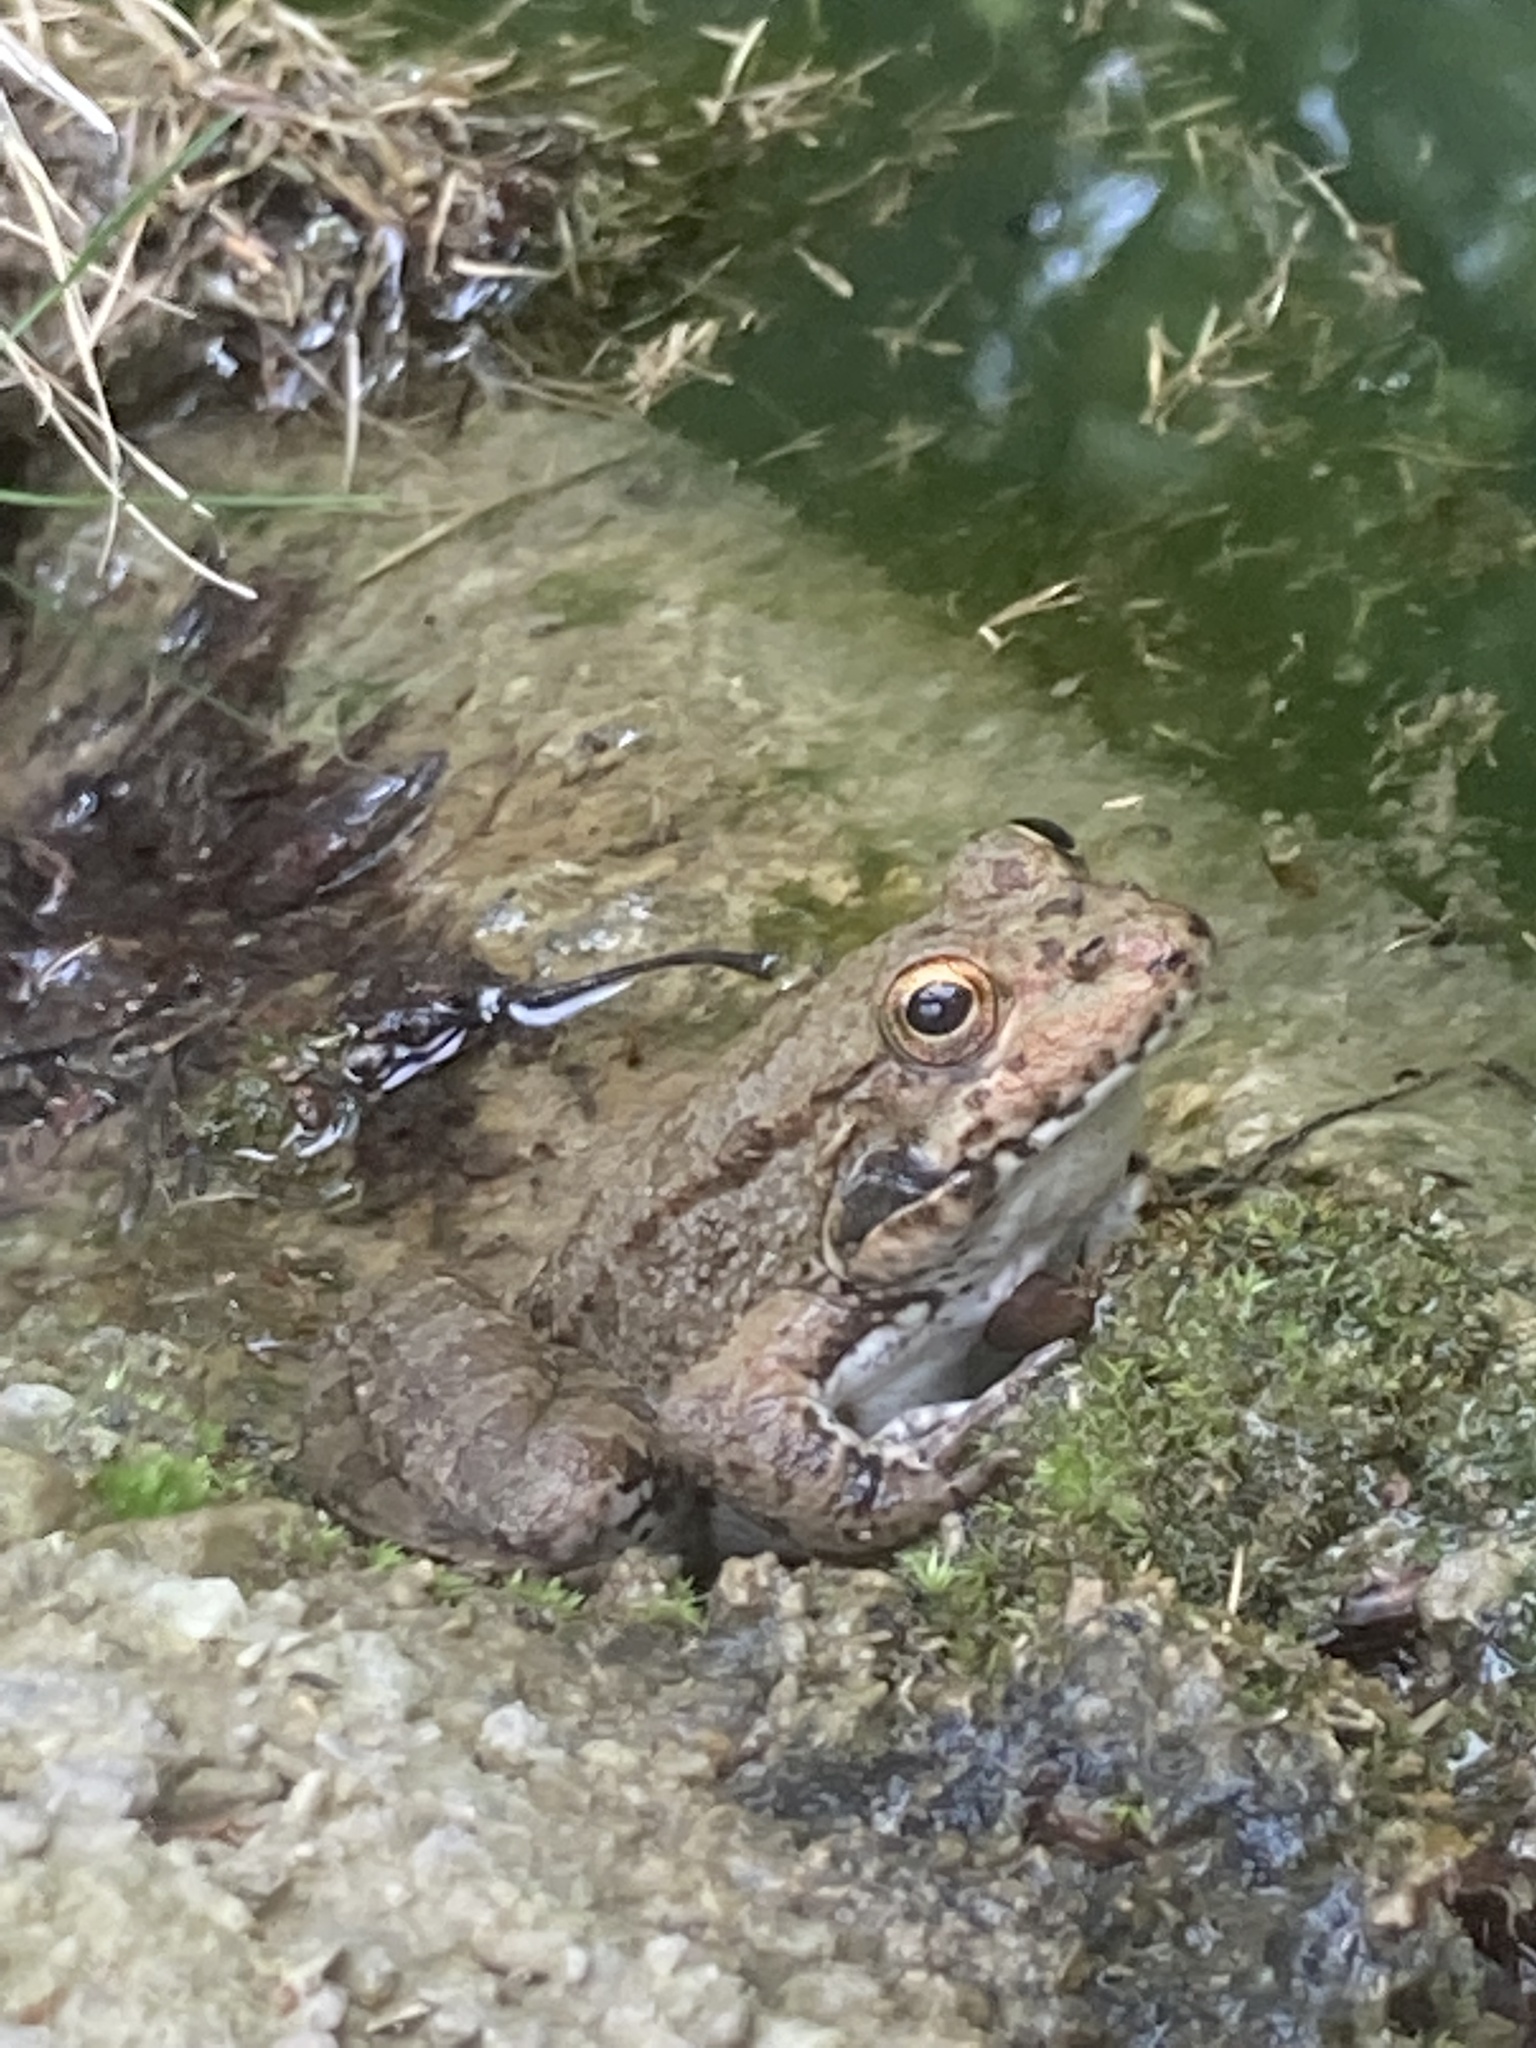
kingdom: Animalia
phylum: Chordata
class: Amphibia
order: Anura
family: Ranidae
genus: Pelophylax
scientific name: Pelophylax ridibundus
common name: Marsh frog
